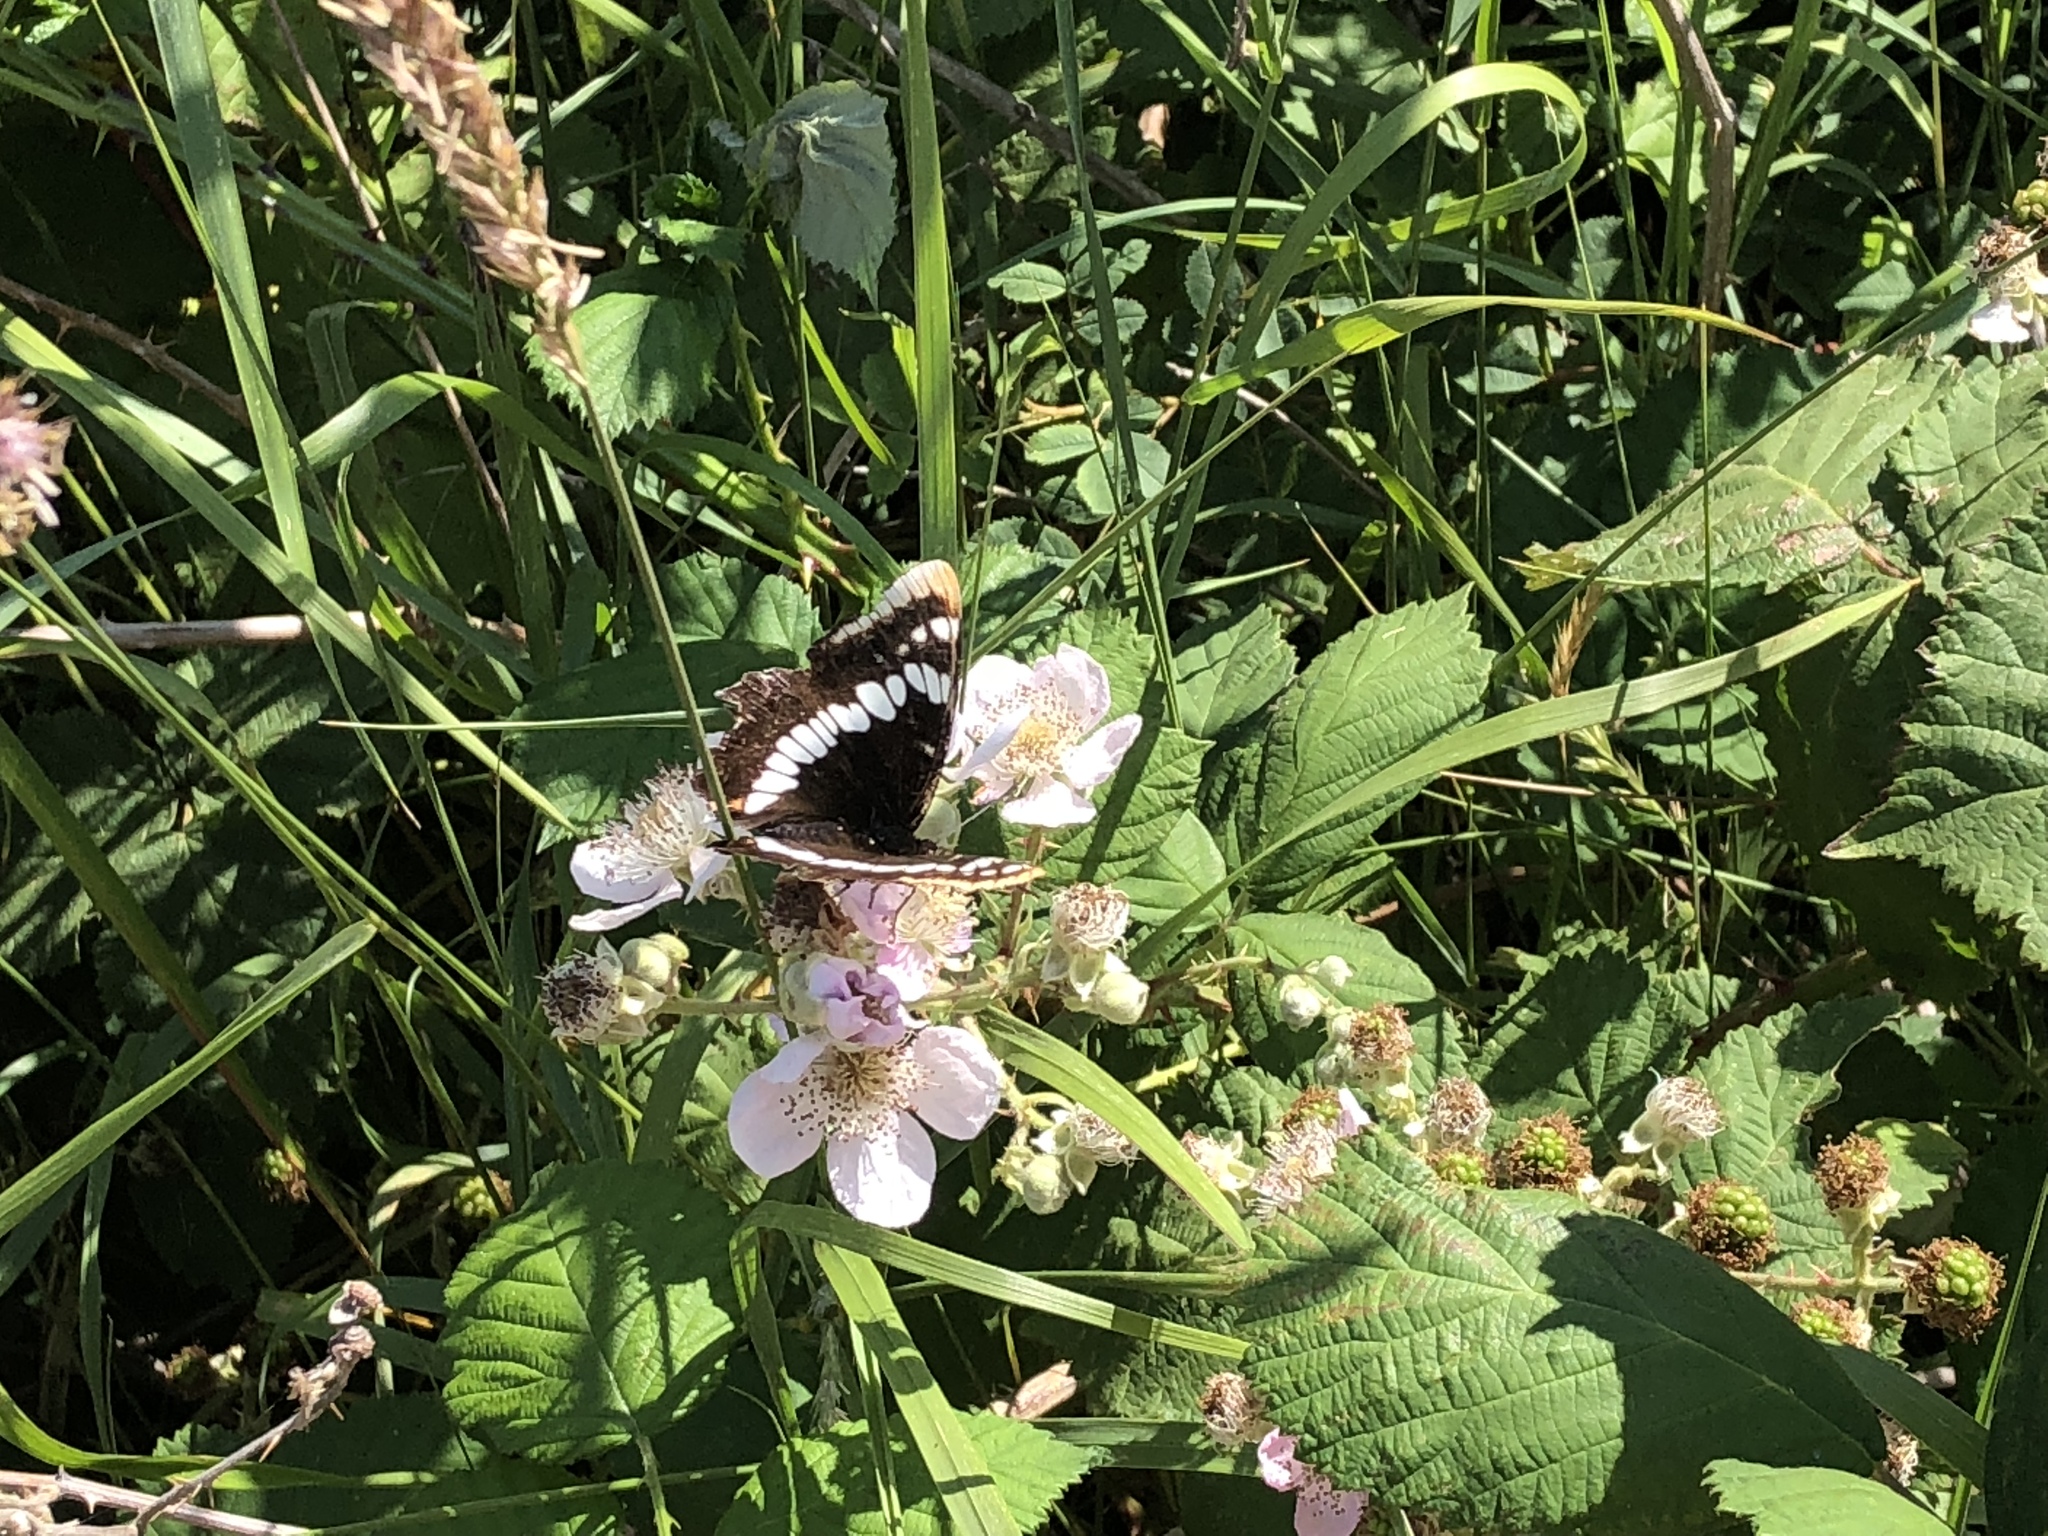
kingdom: Animalia
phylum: Arthropoda
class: Insecta
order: Lepidoptera
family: Nymphalidae
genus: Limenitis
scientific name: Limenitis lorquini
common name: Lorquin's admiral
